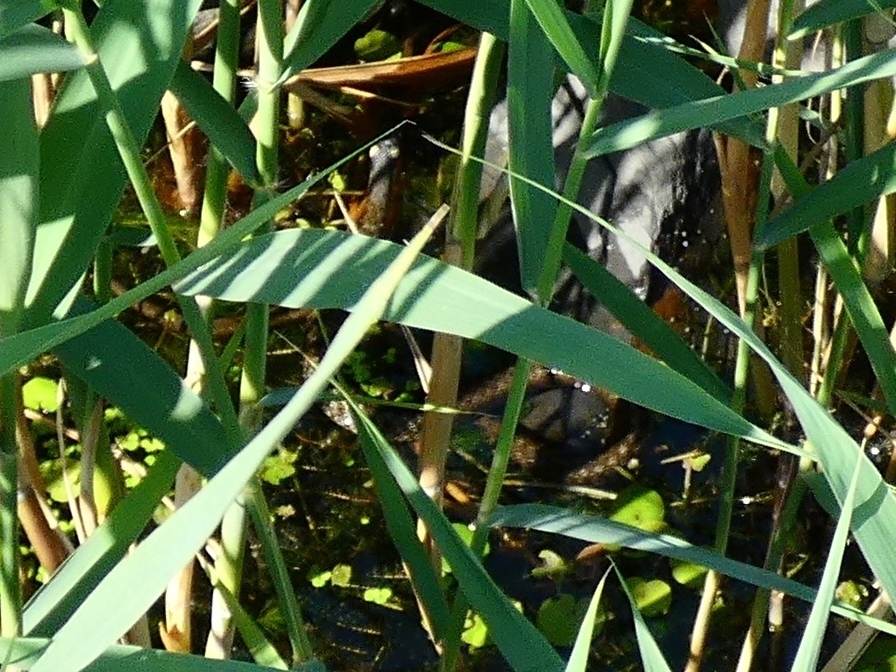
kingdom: Animalia
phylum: Chordata
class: Squamata
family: Colubridae
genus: Natrix
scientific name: Natrix natrix
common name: Grass snake
